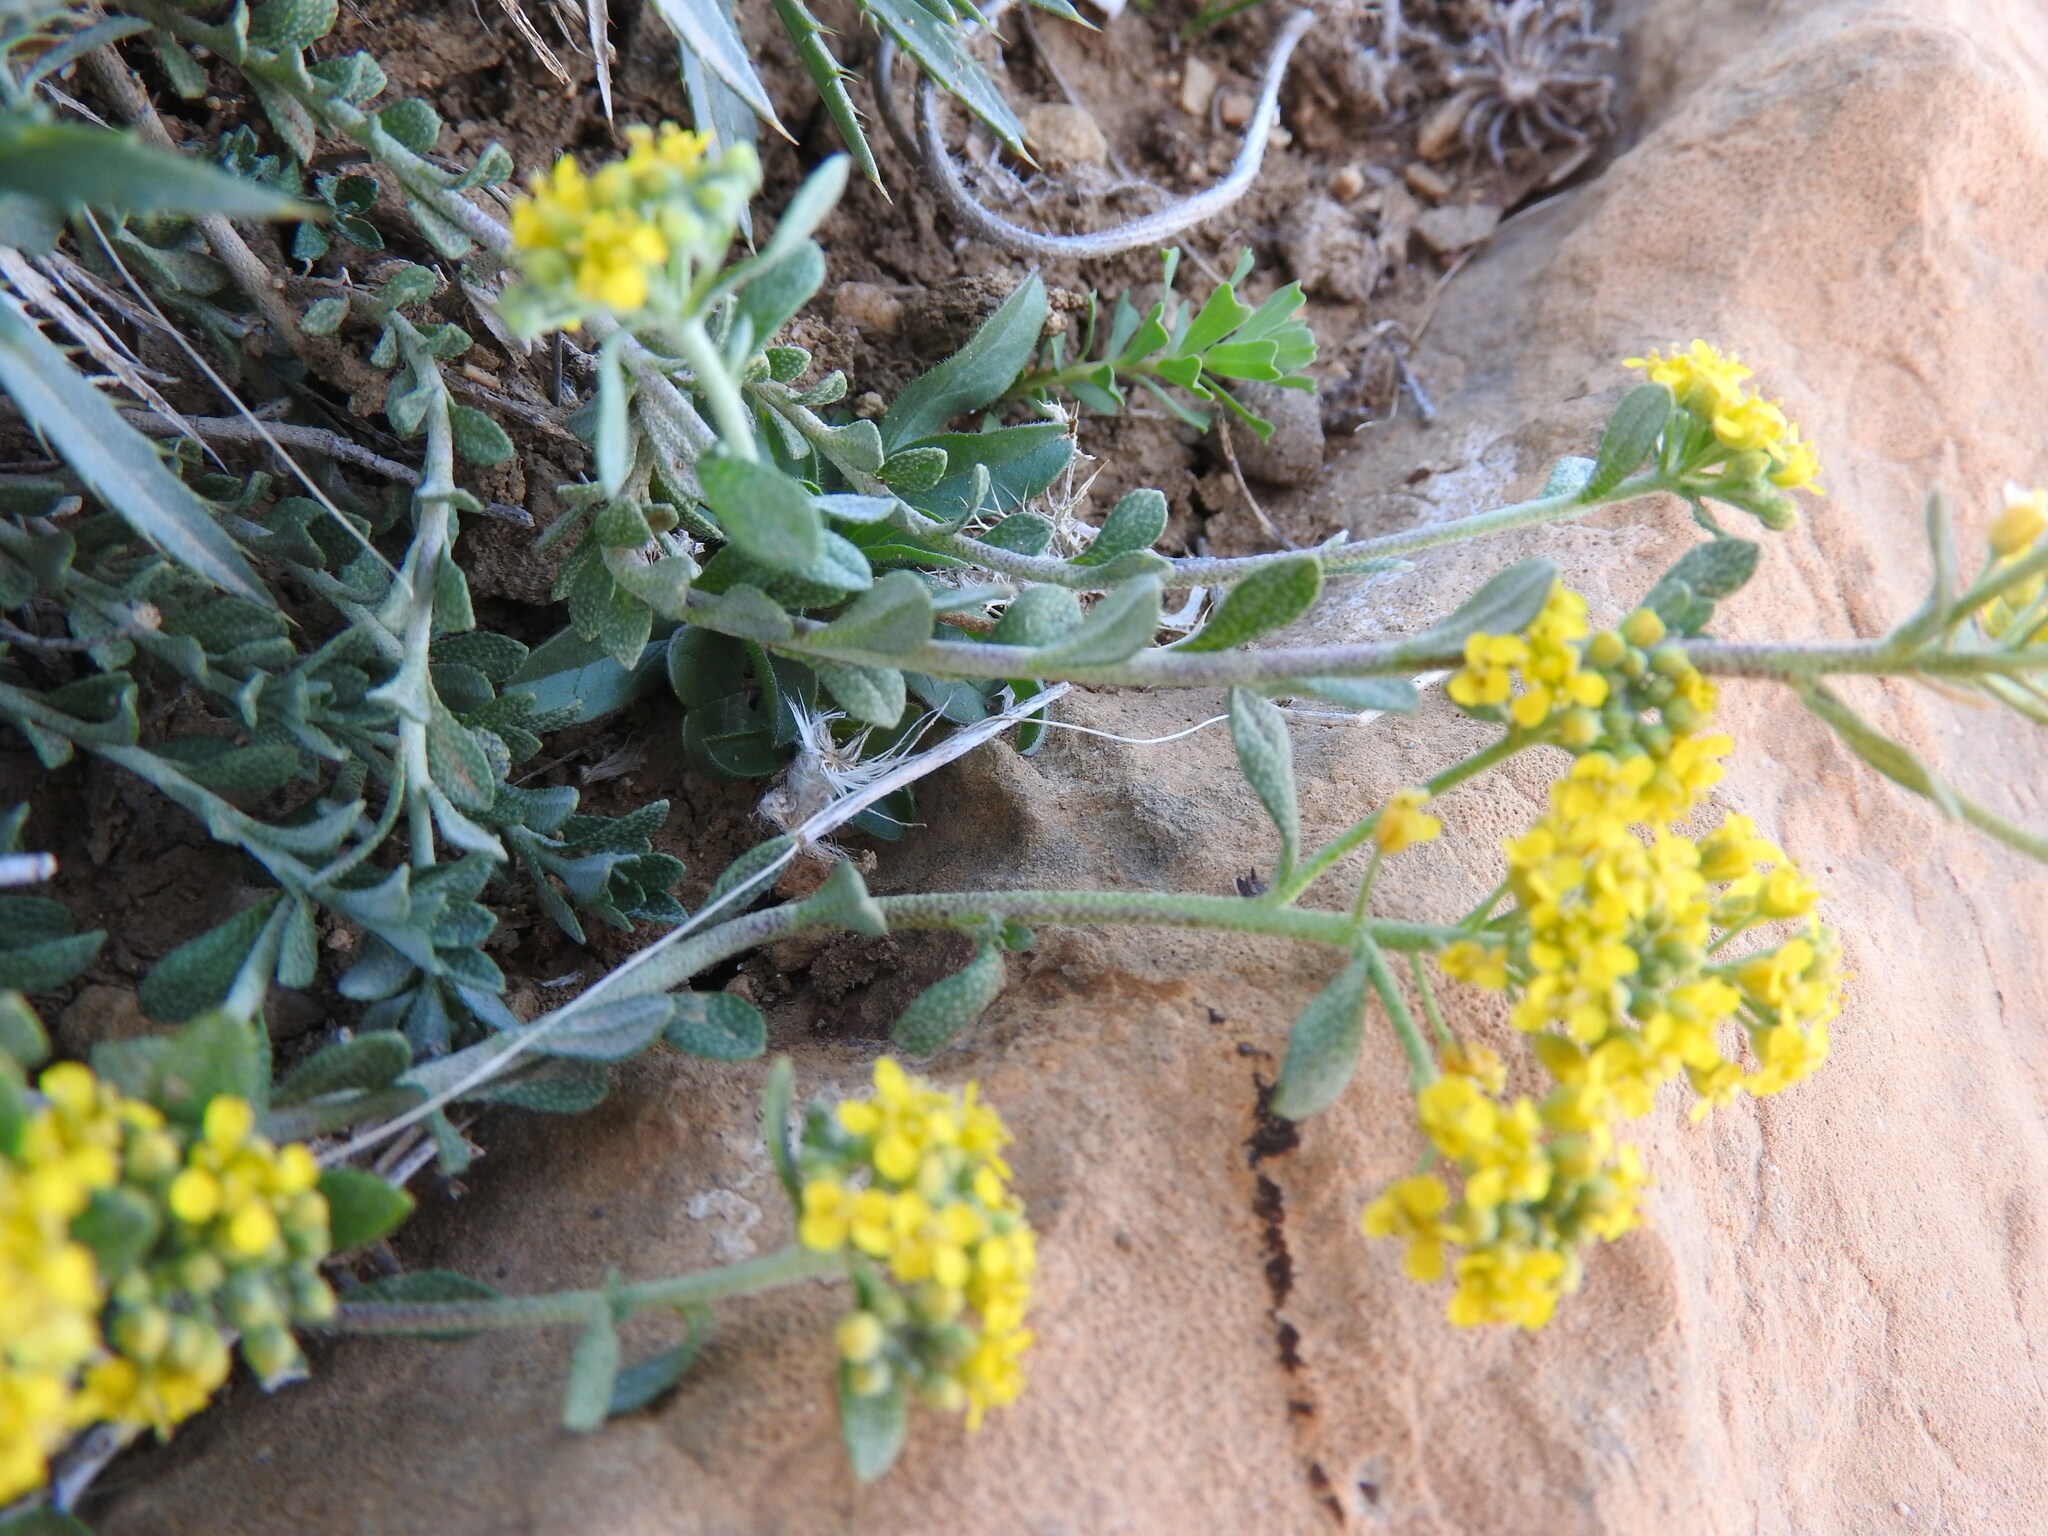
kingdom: Plantae
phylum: Tracheophyta
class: Magnoliopsida
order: Brassicales
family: Brassicaceae
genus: Odontarrhena
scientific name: Odontarrhena serpyllifolia
